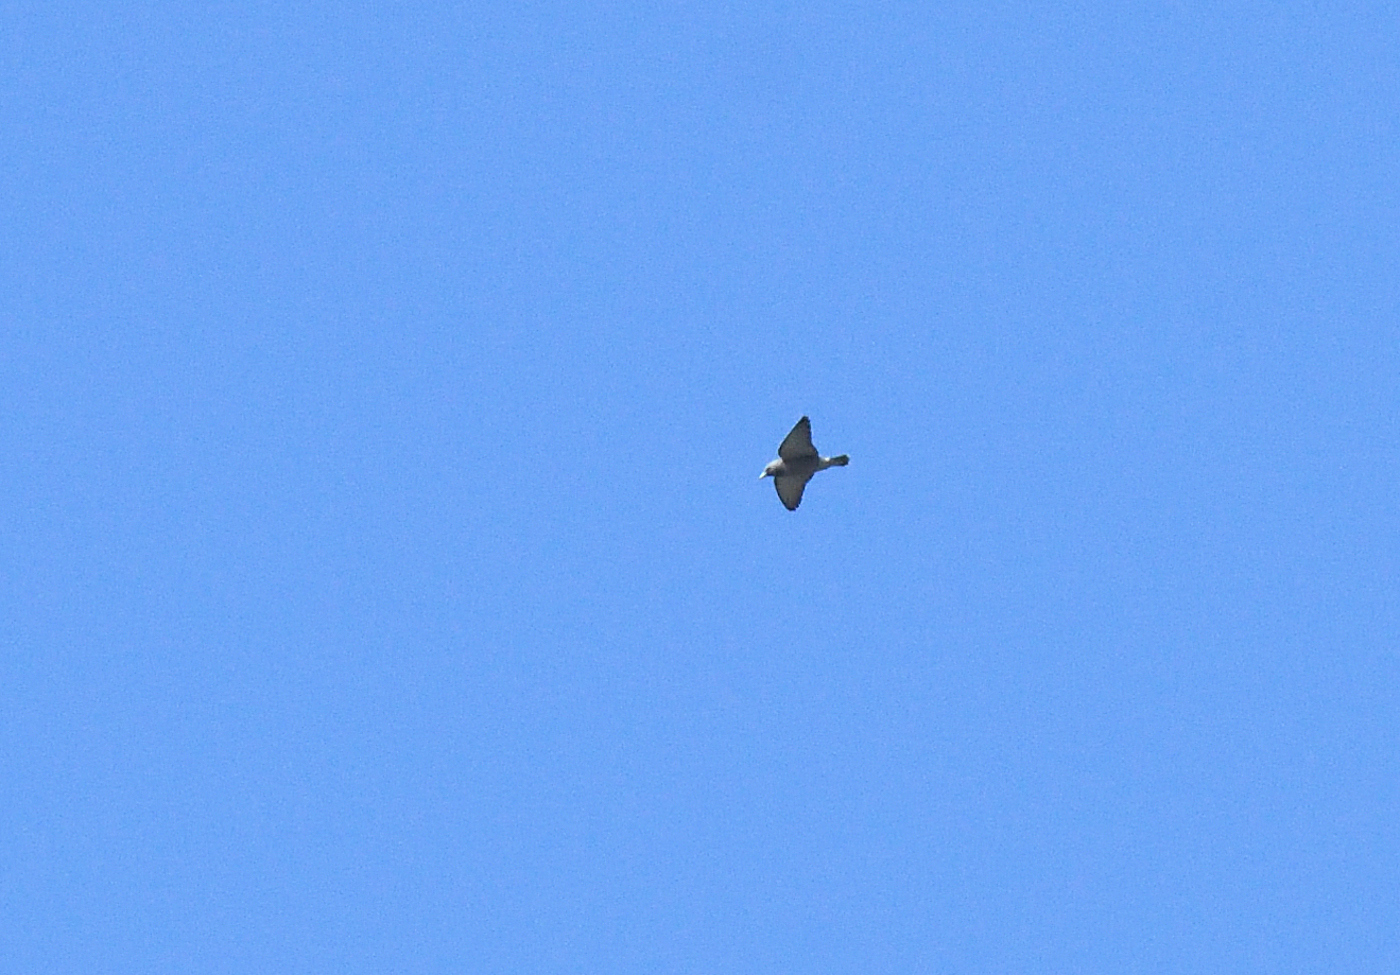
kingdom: Animalia
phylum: Chordata
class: Aves
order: Passeriformes
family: Artamidae
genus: Artamus
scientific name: Artamus fuscus
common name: Ashy woodswallow
